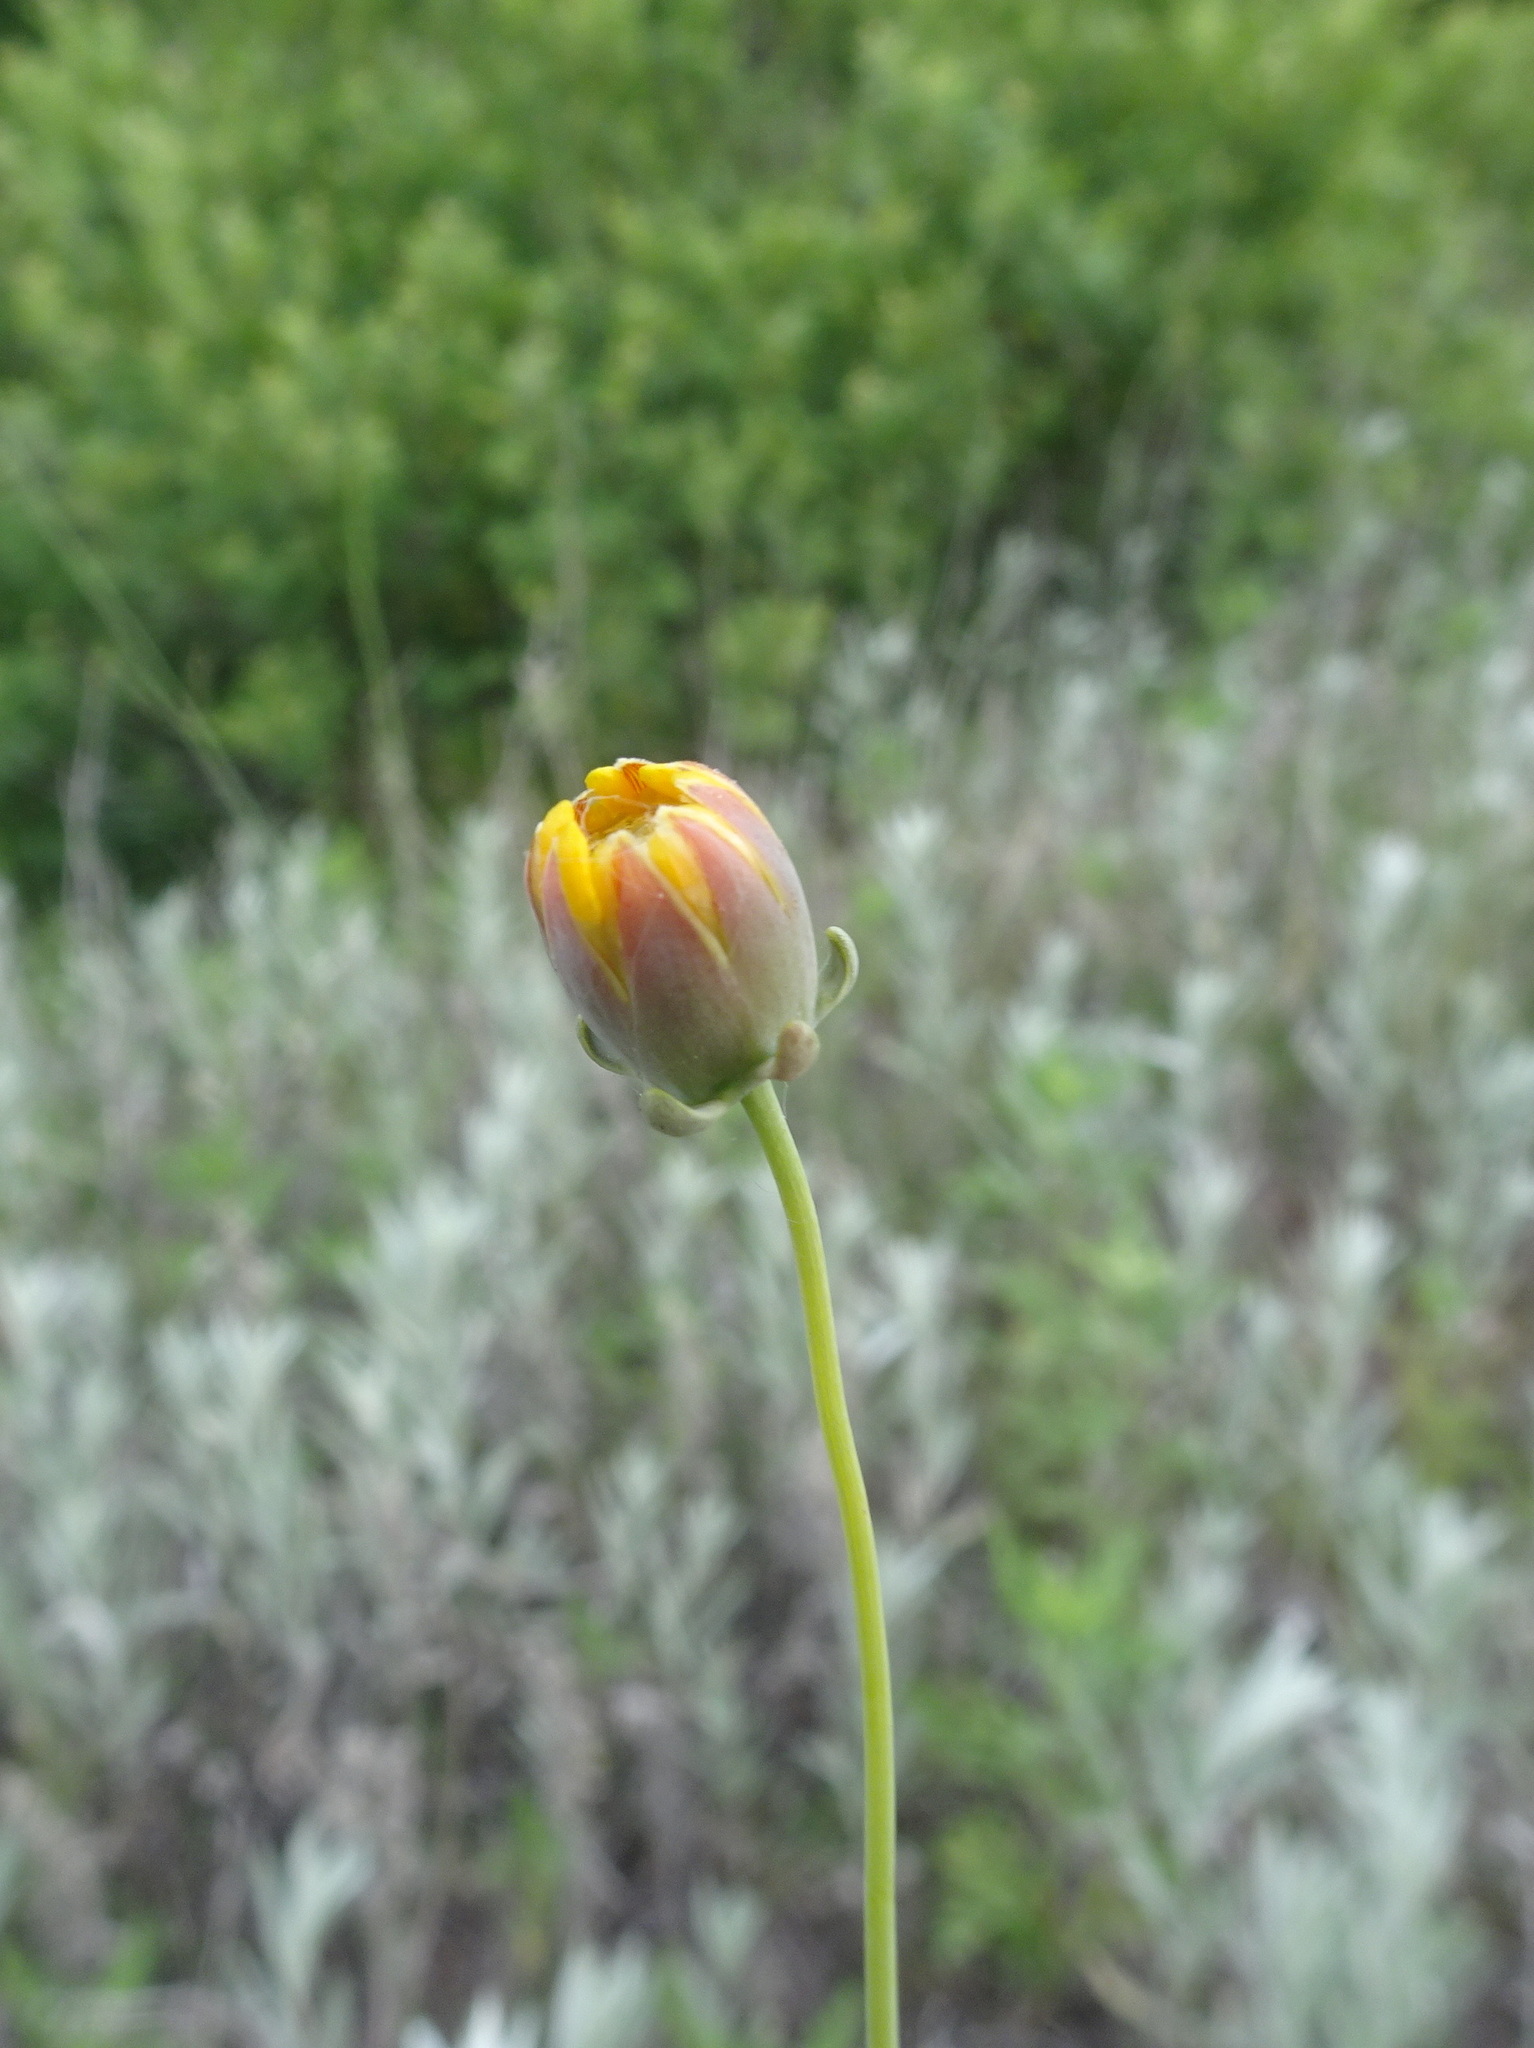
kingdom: Plantae
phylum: Tracheophyta
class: Magnoliopsida
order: Asterales
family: Asteraceae
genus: Thelesperma
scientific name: Thelesperma megapotamicum
